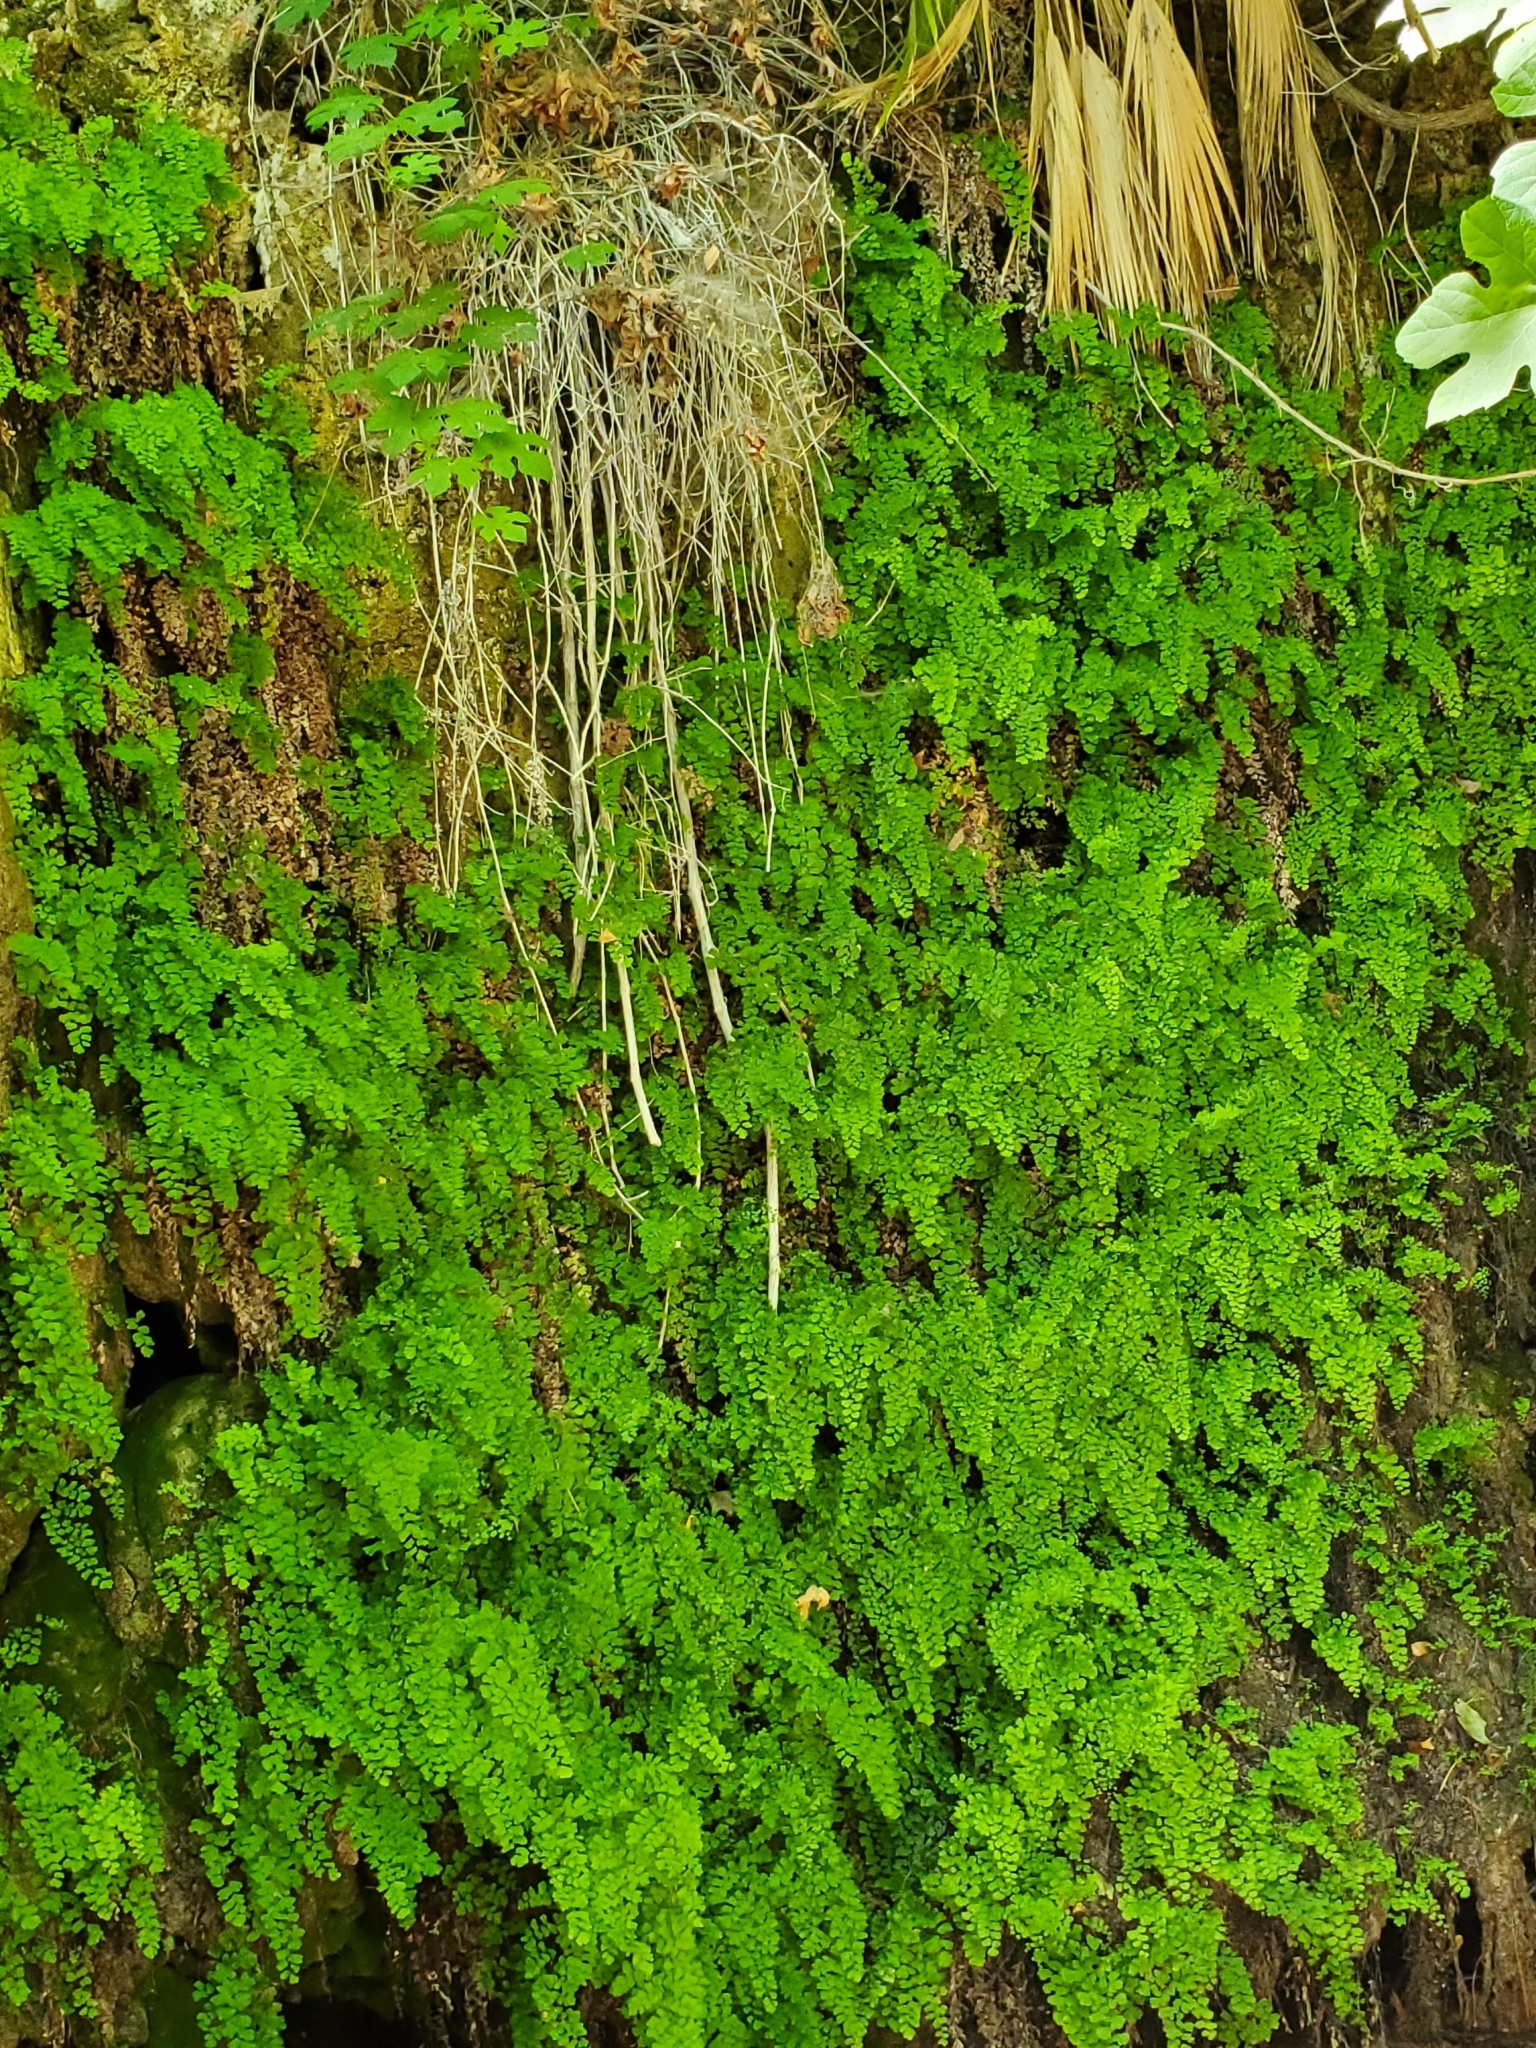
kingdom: Plantae
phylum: Tracheophyta
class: Polypodiopsida
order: Polypodiales
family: Pteridaceae
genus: Adiantum
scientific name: Adiantum capillus-veneris
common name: Maidenhair fern
